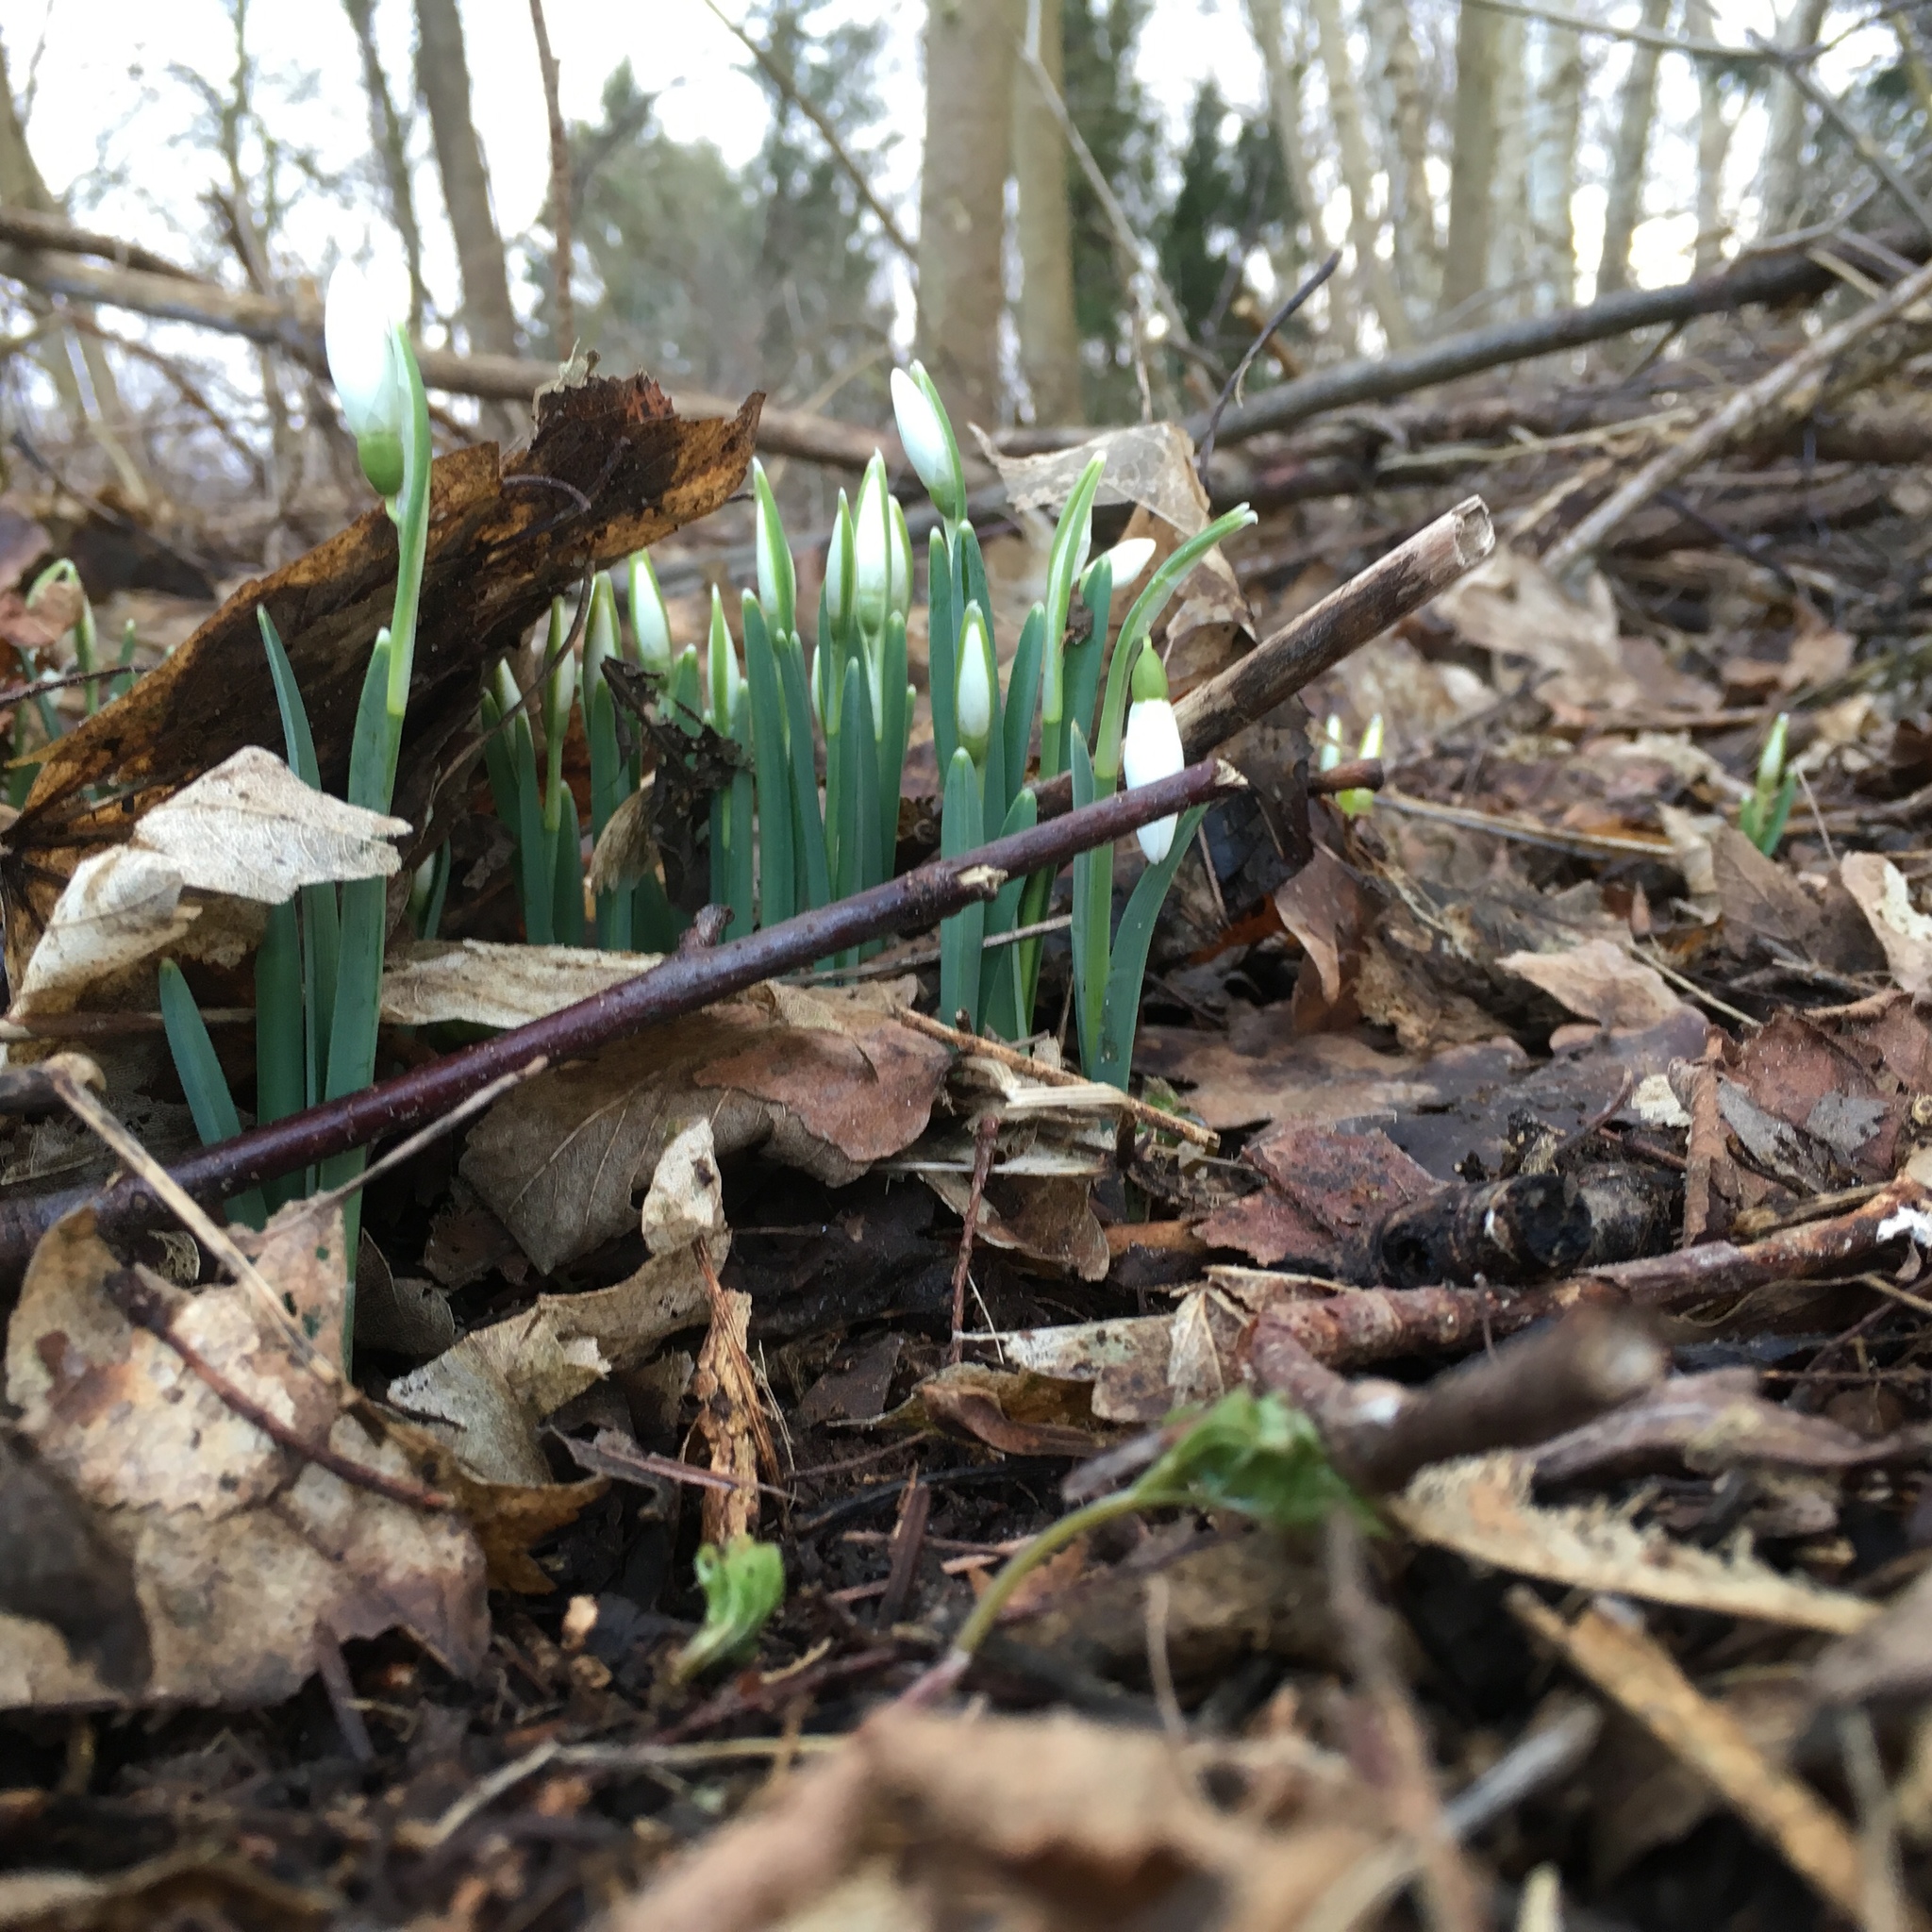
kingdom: Plantae
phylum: Tracheophyta
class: Liliopsida
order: Asparagales
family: Amaryllidaceae
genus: Galanthus
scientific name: Galanthus nivalis
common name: Snowdrop
